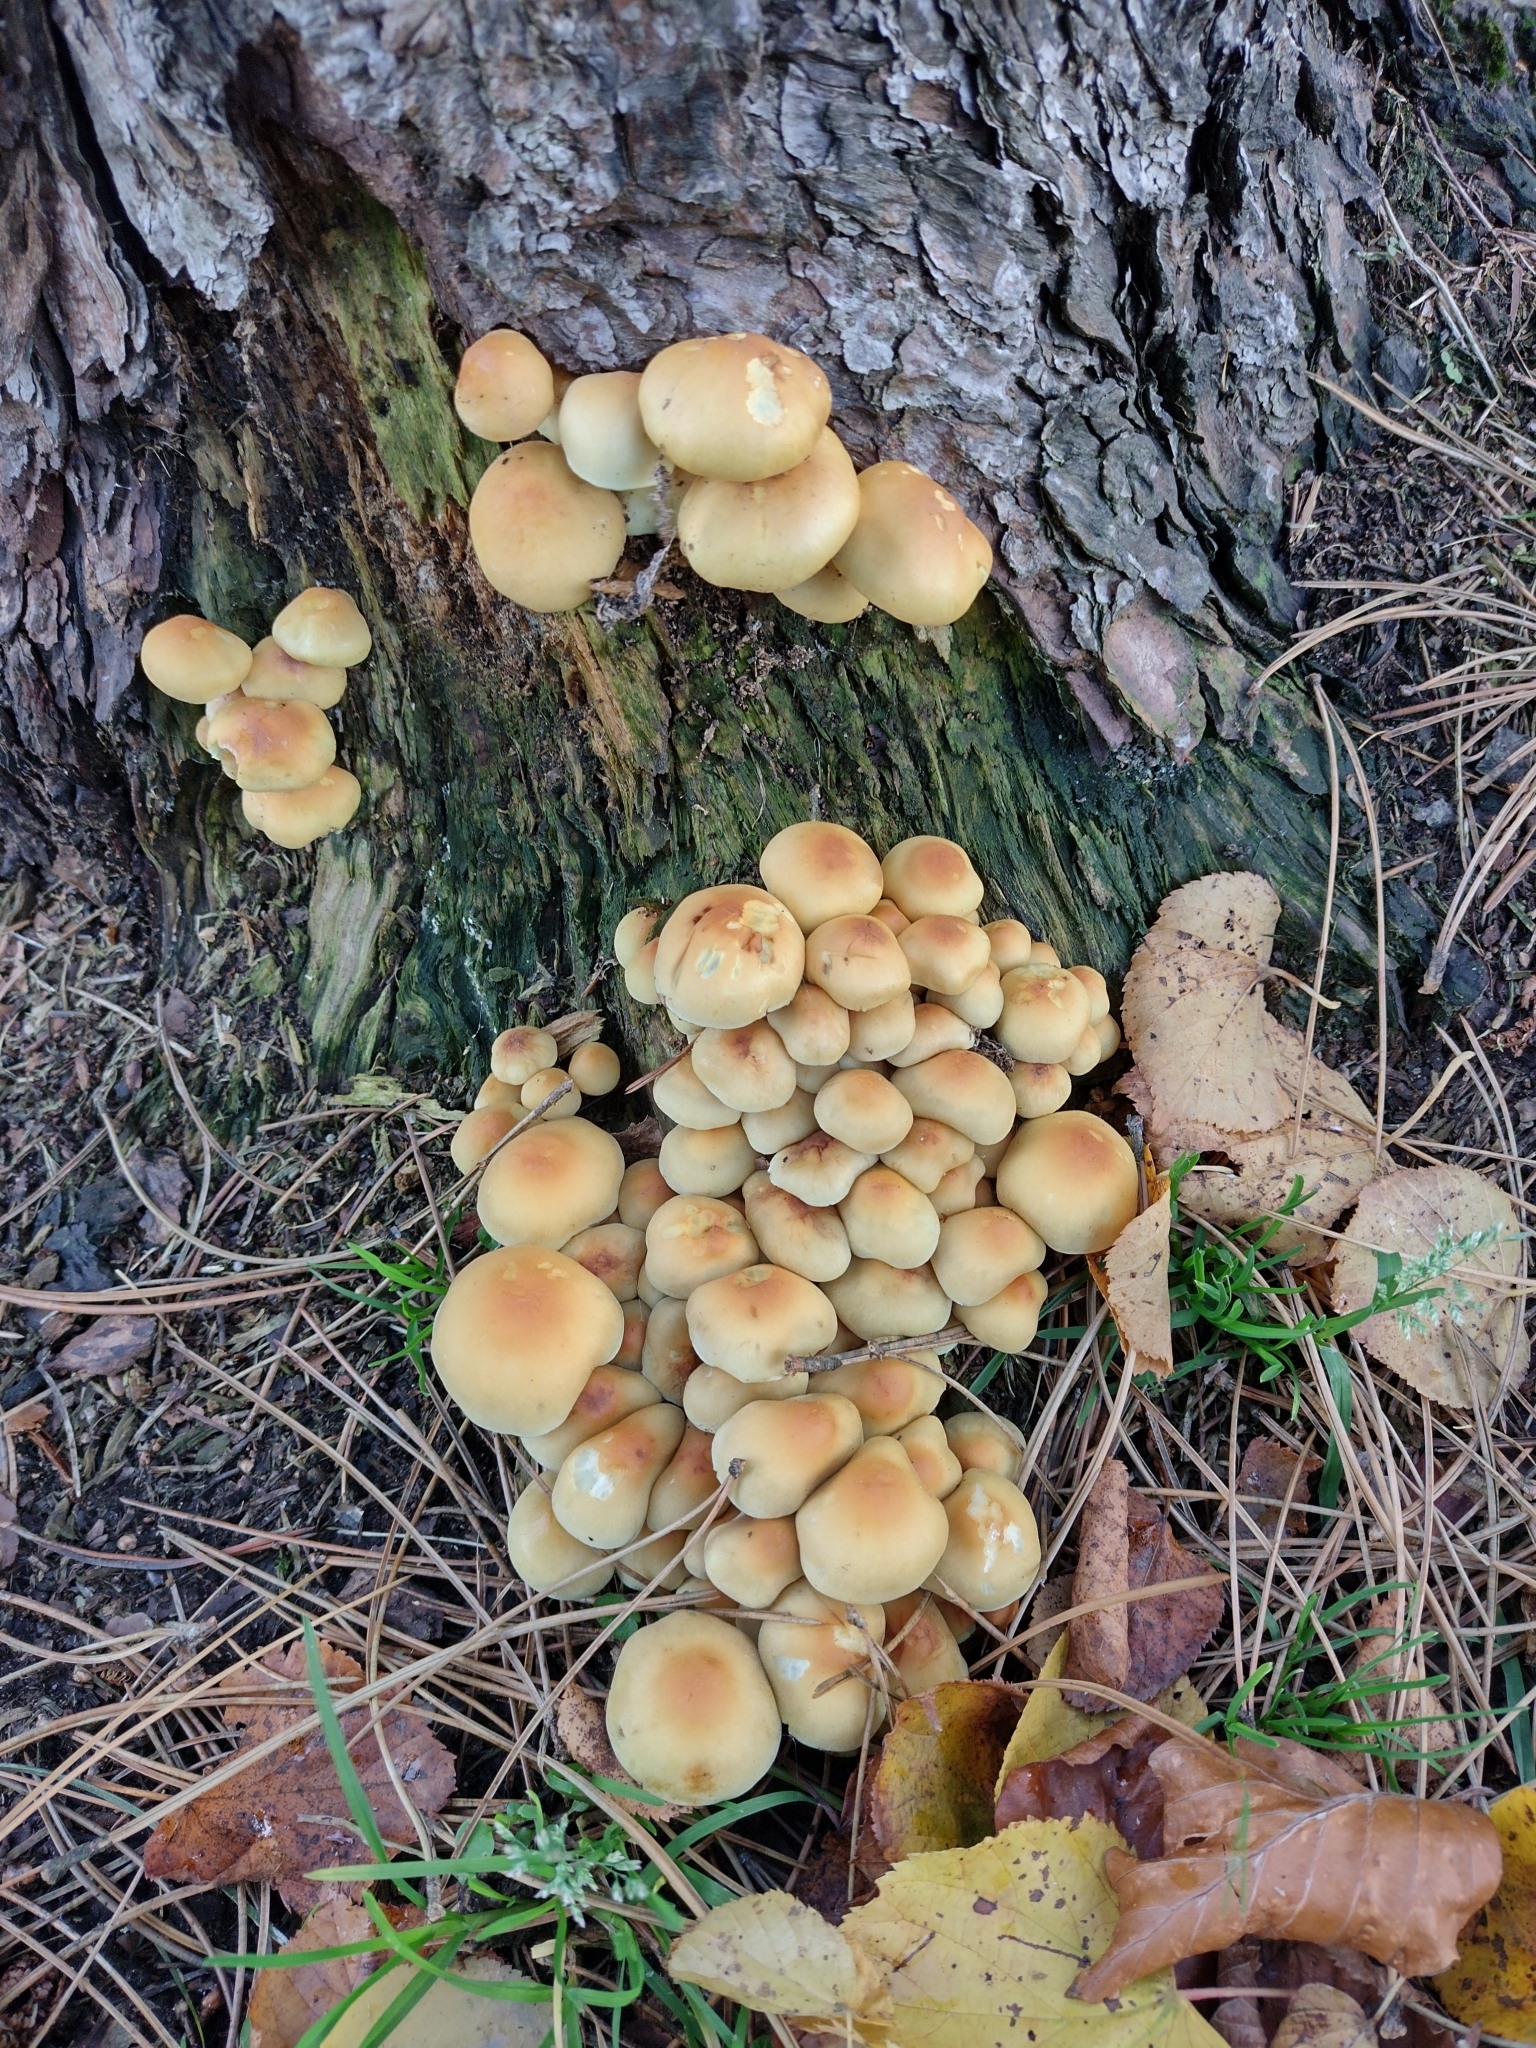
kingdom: Fungi
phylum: Basidiomycota
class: Agaricomycetes
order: Agaricales
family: Strophariaceae
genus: Hypholoma
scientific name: Hypholoma capnoides
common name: Conifer tuft
